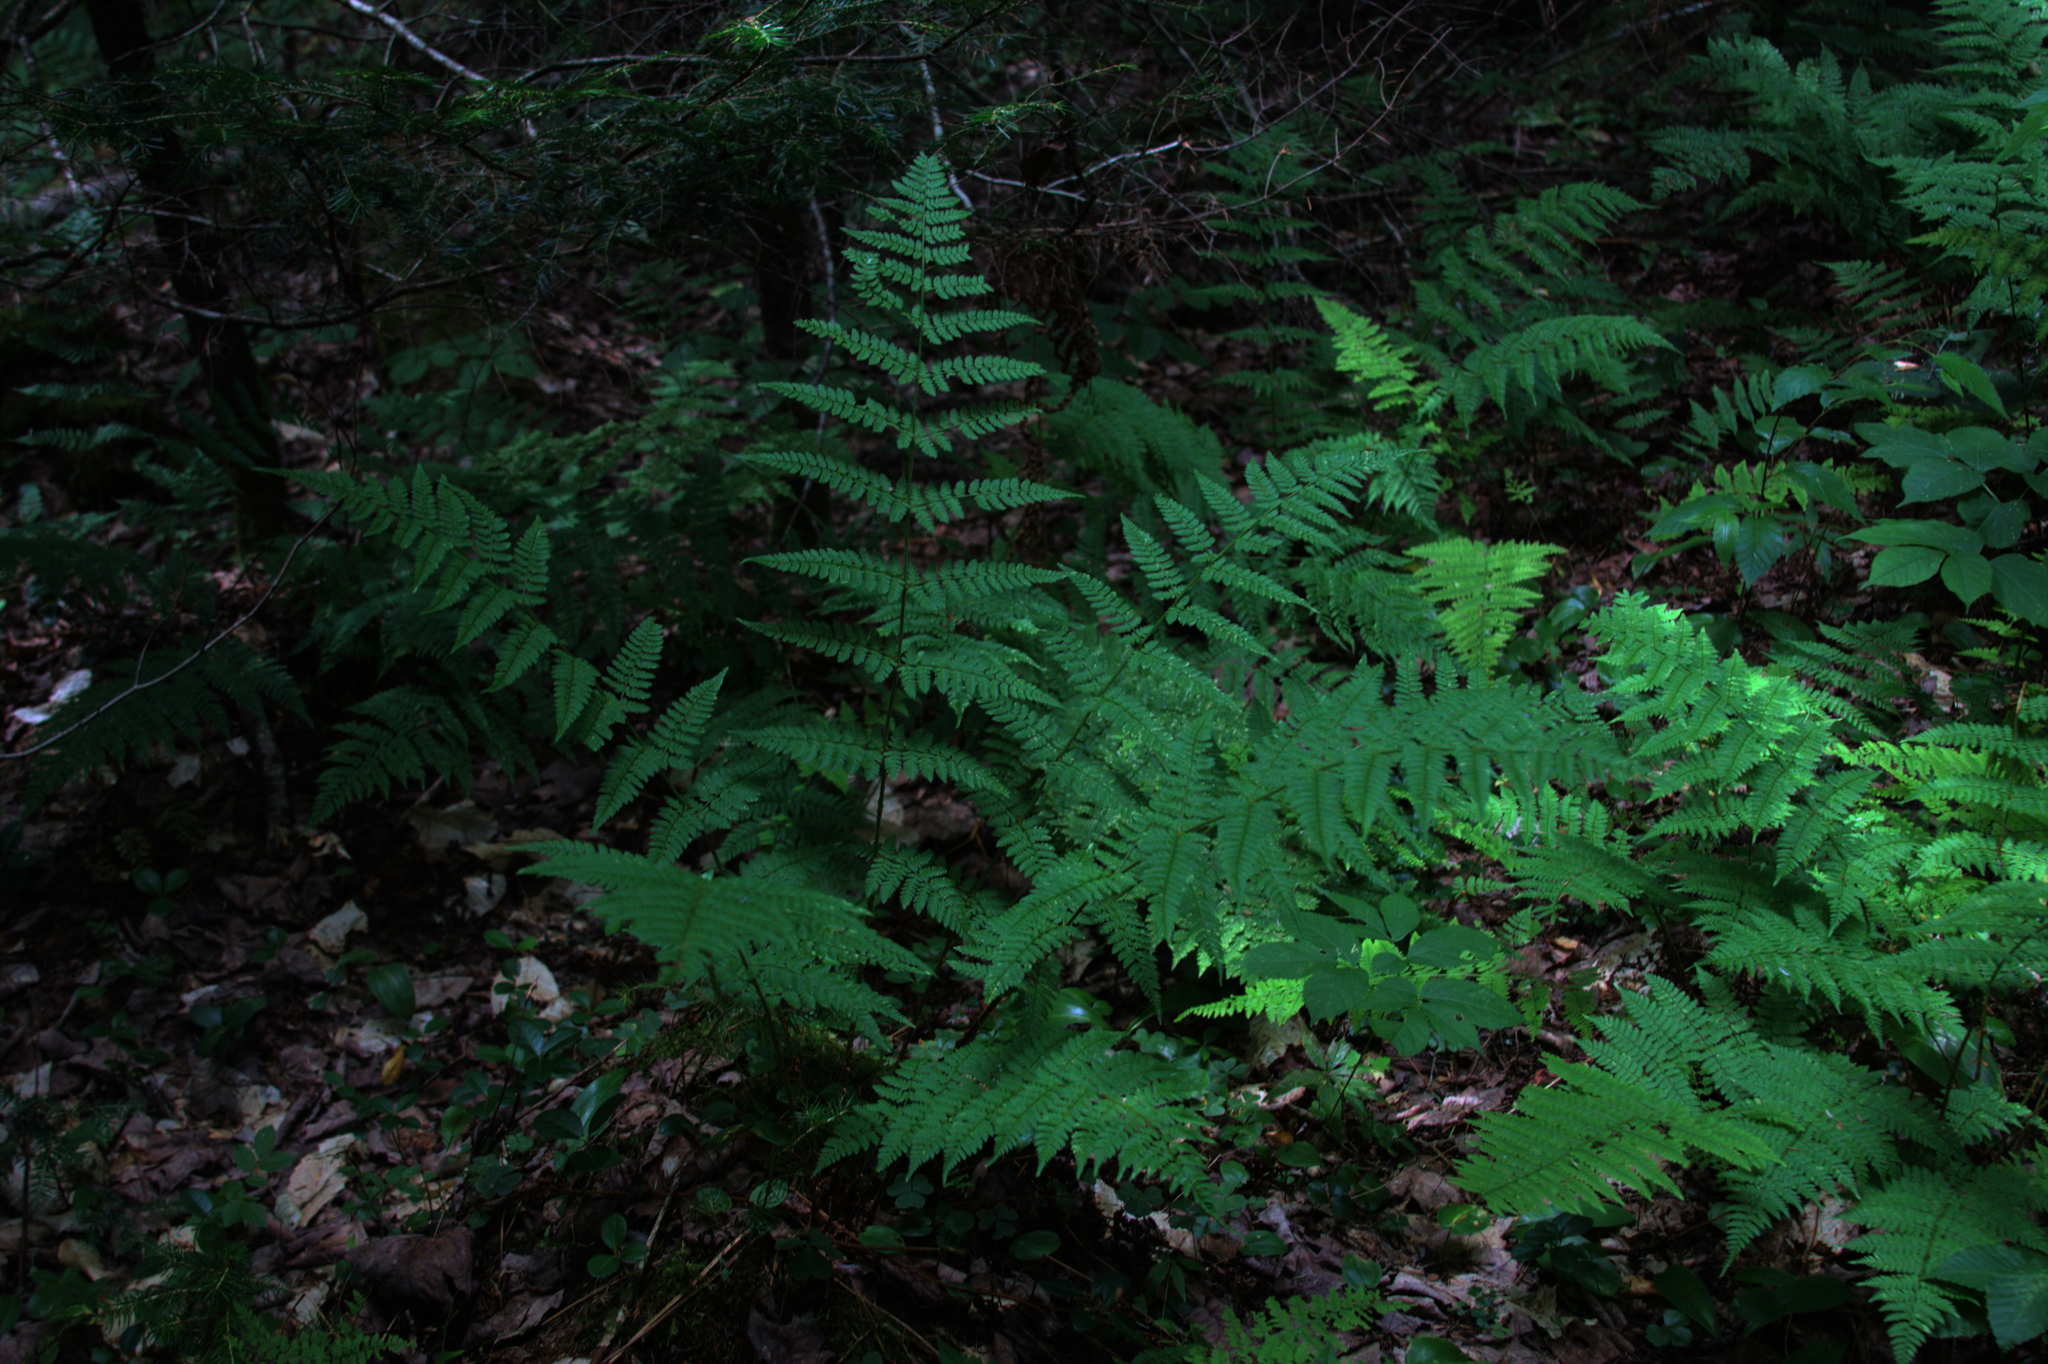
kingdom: Plantae
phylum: Tracheophyta
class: Polypodiopsida
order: Polypodiales
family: Dryopteridaceae
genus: Dryopteris
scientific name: Dryopteris intermedia
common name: Evergreen wood fern
